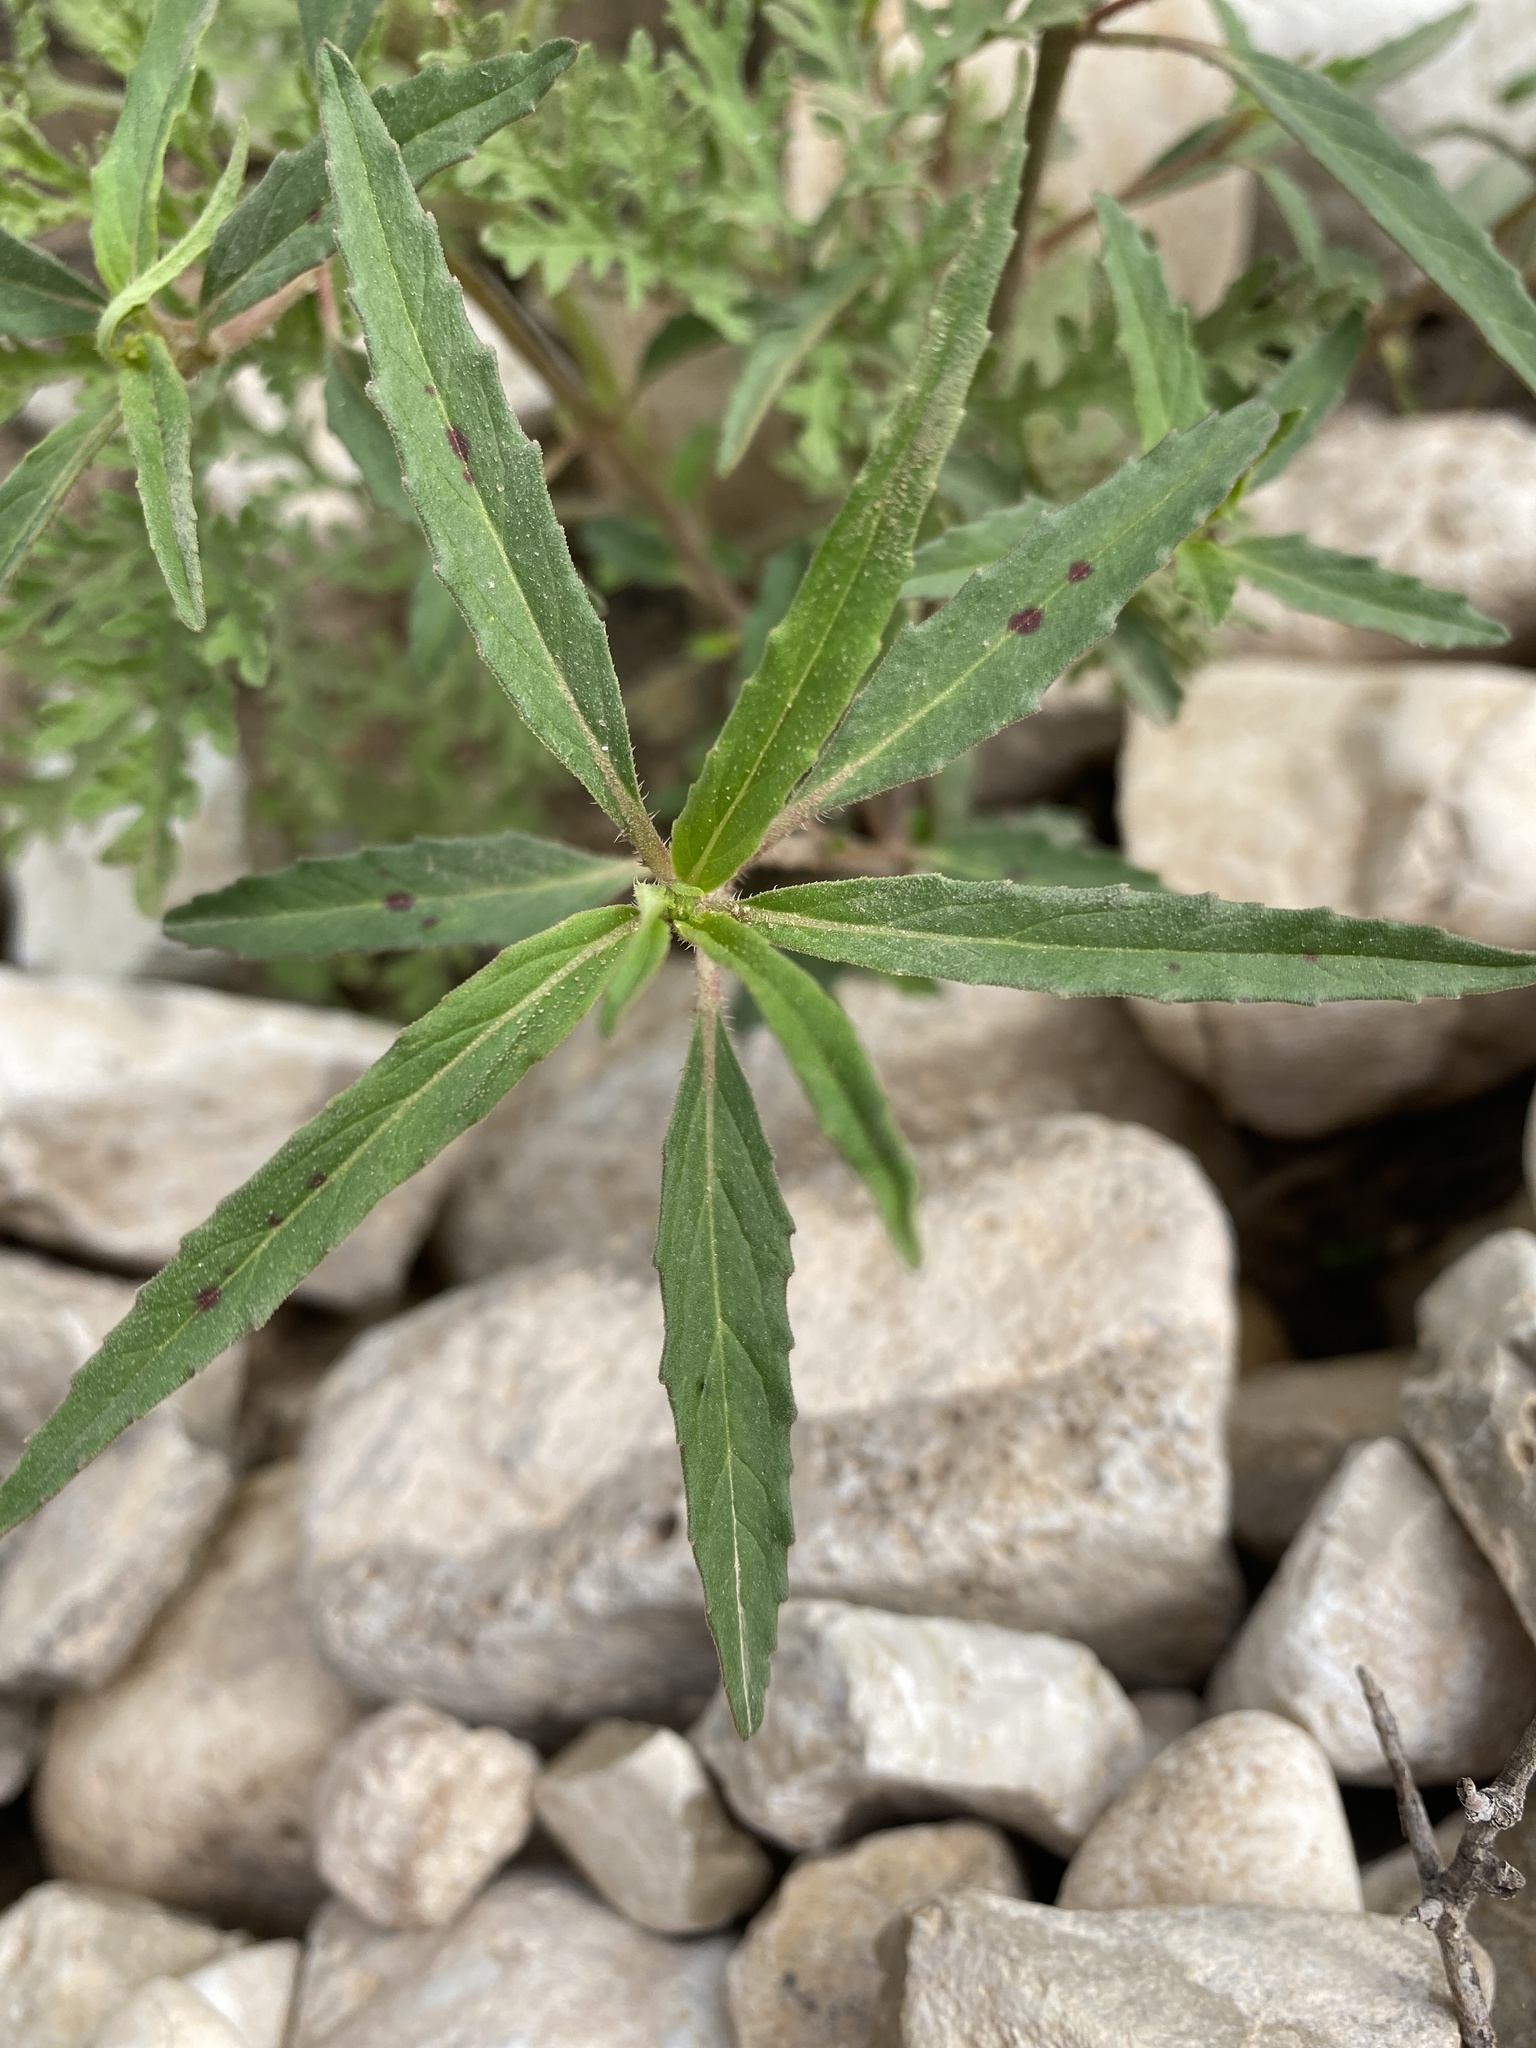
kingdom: Plantae
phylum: Tracheophyta
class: Magnoliopsida
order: Malpighiales
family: Euphorbiaceae
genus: Euphorbia
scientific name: Euphorbia davidii
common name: David's spurge
